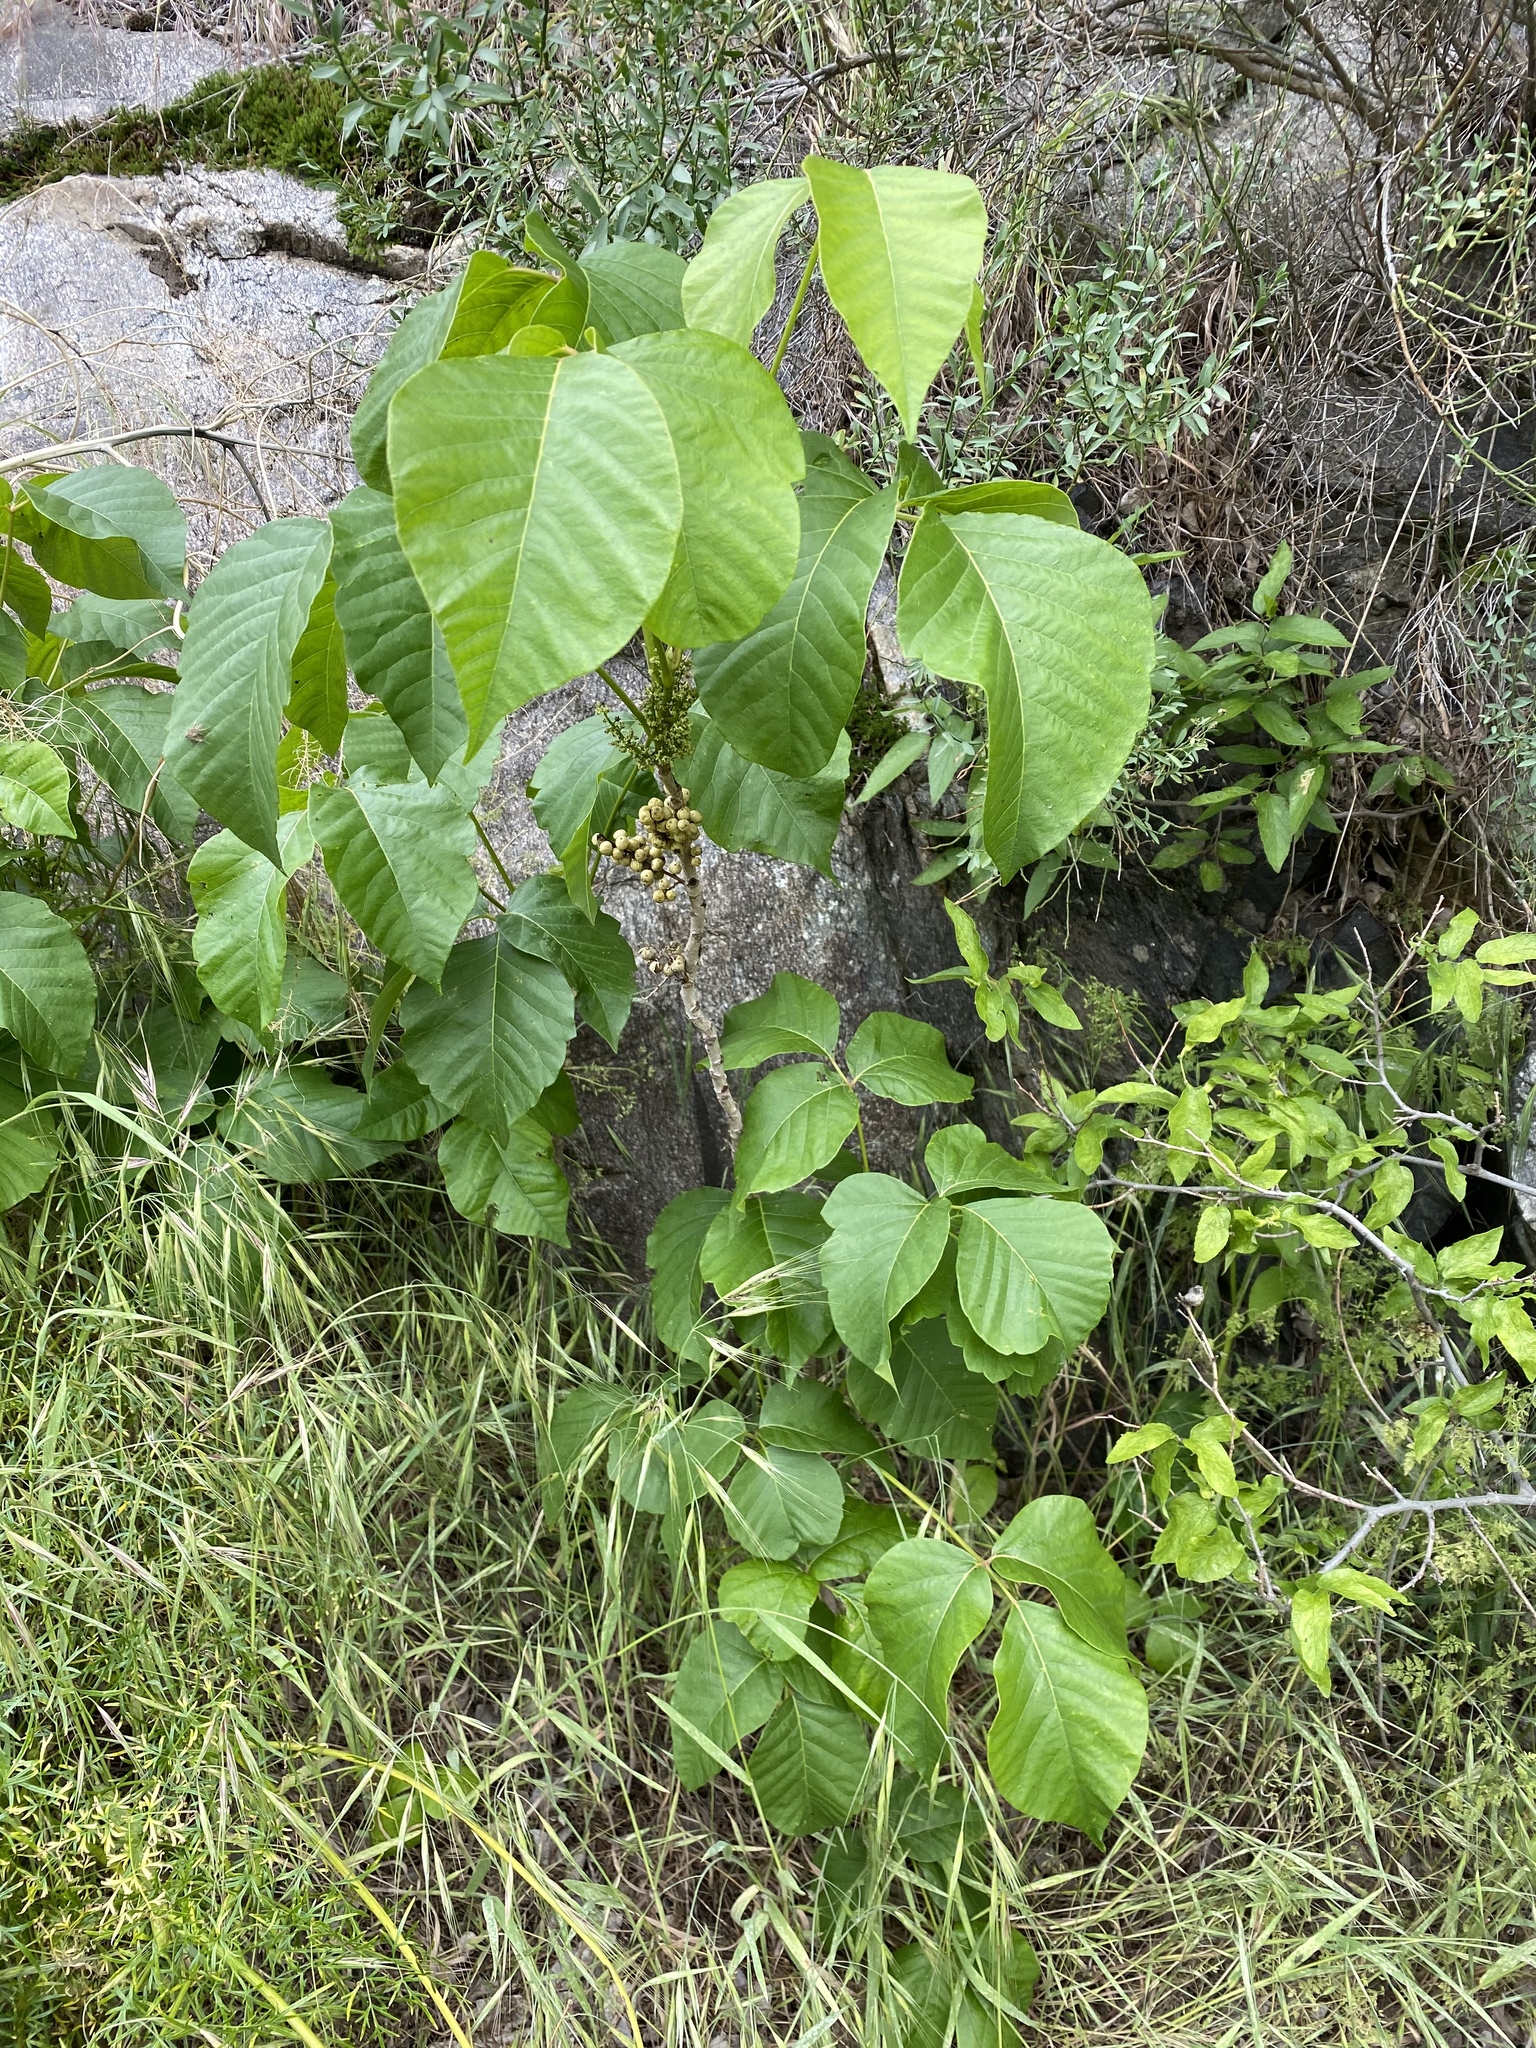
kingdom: Plantae
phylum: Tracheophyta
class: Magnoliopsida
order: Sapindales
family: Anacardiaceae
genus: Toxicodendron
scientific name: Toxicodendron rydbergii
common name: Rydberg's poison-ivy
